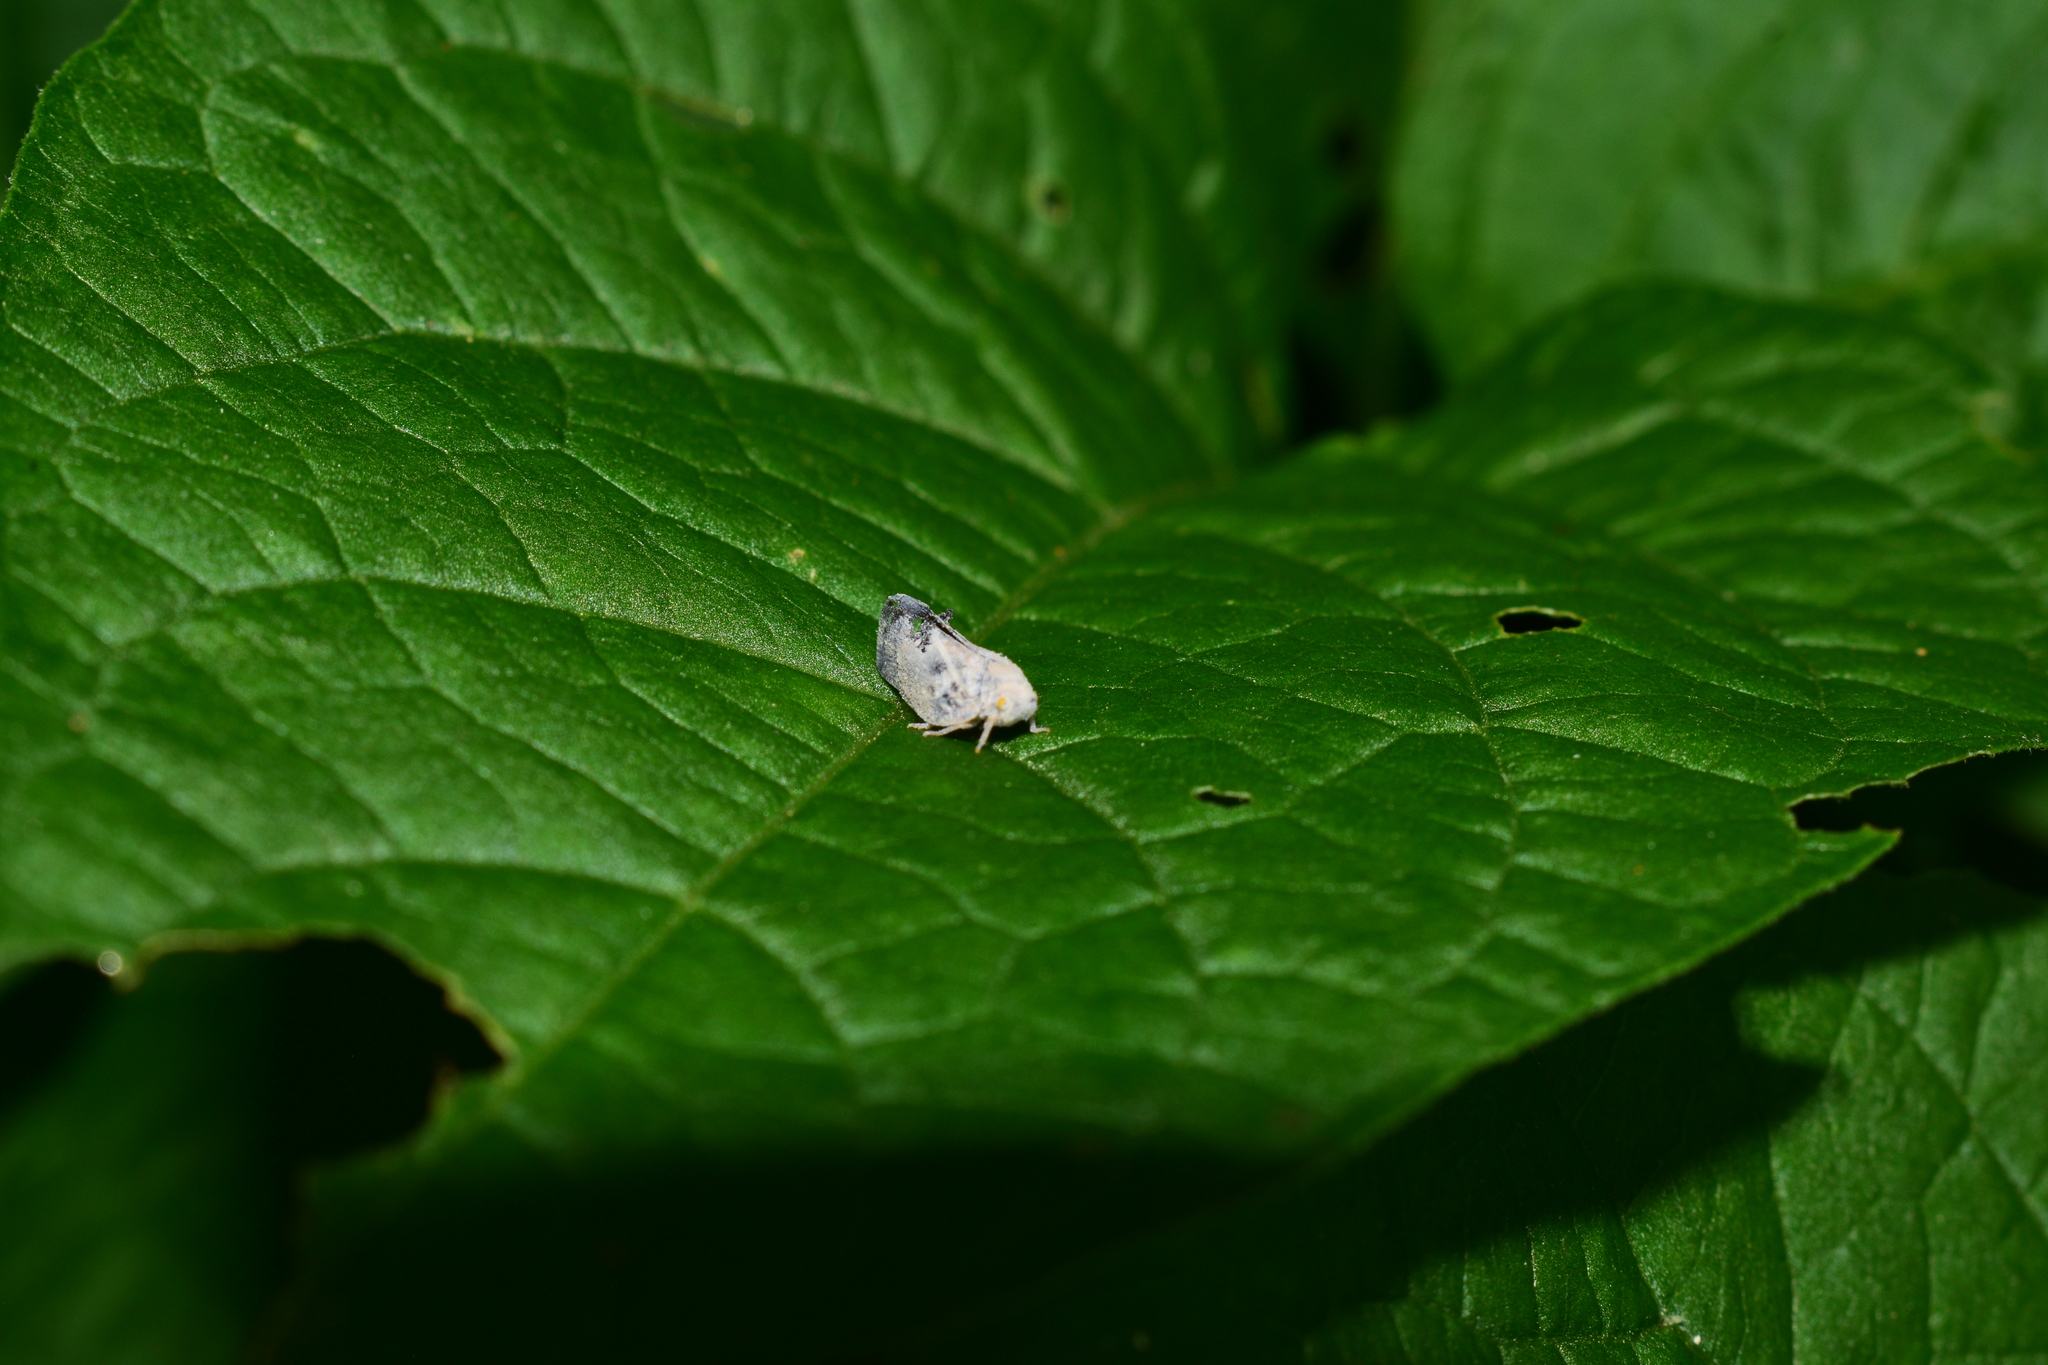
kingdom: Animalia
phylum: Arthropoda
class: Insecta
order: Hemiptera
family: Flatidae
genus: Metcalfa
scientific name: Metcalfa pruinosa
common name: Citrus flatid planthopper
